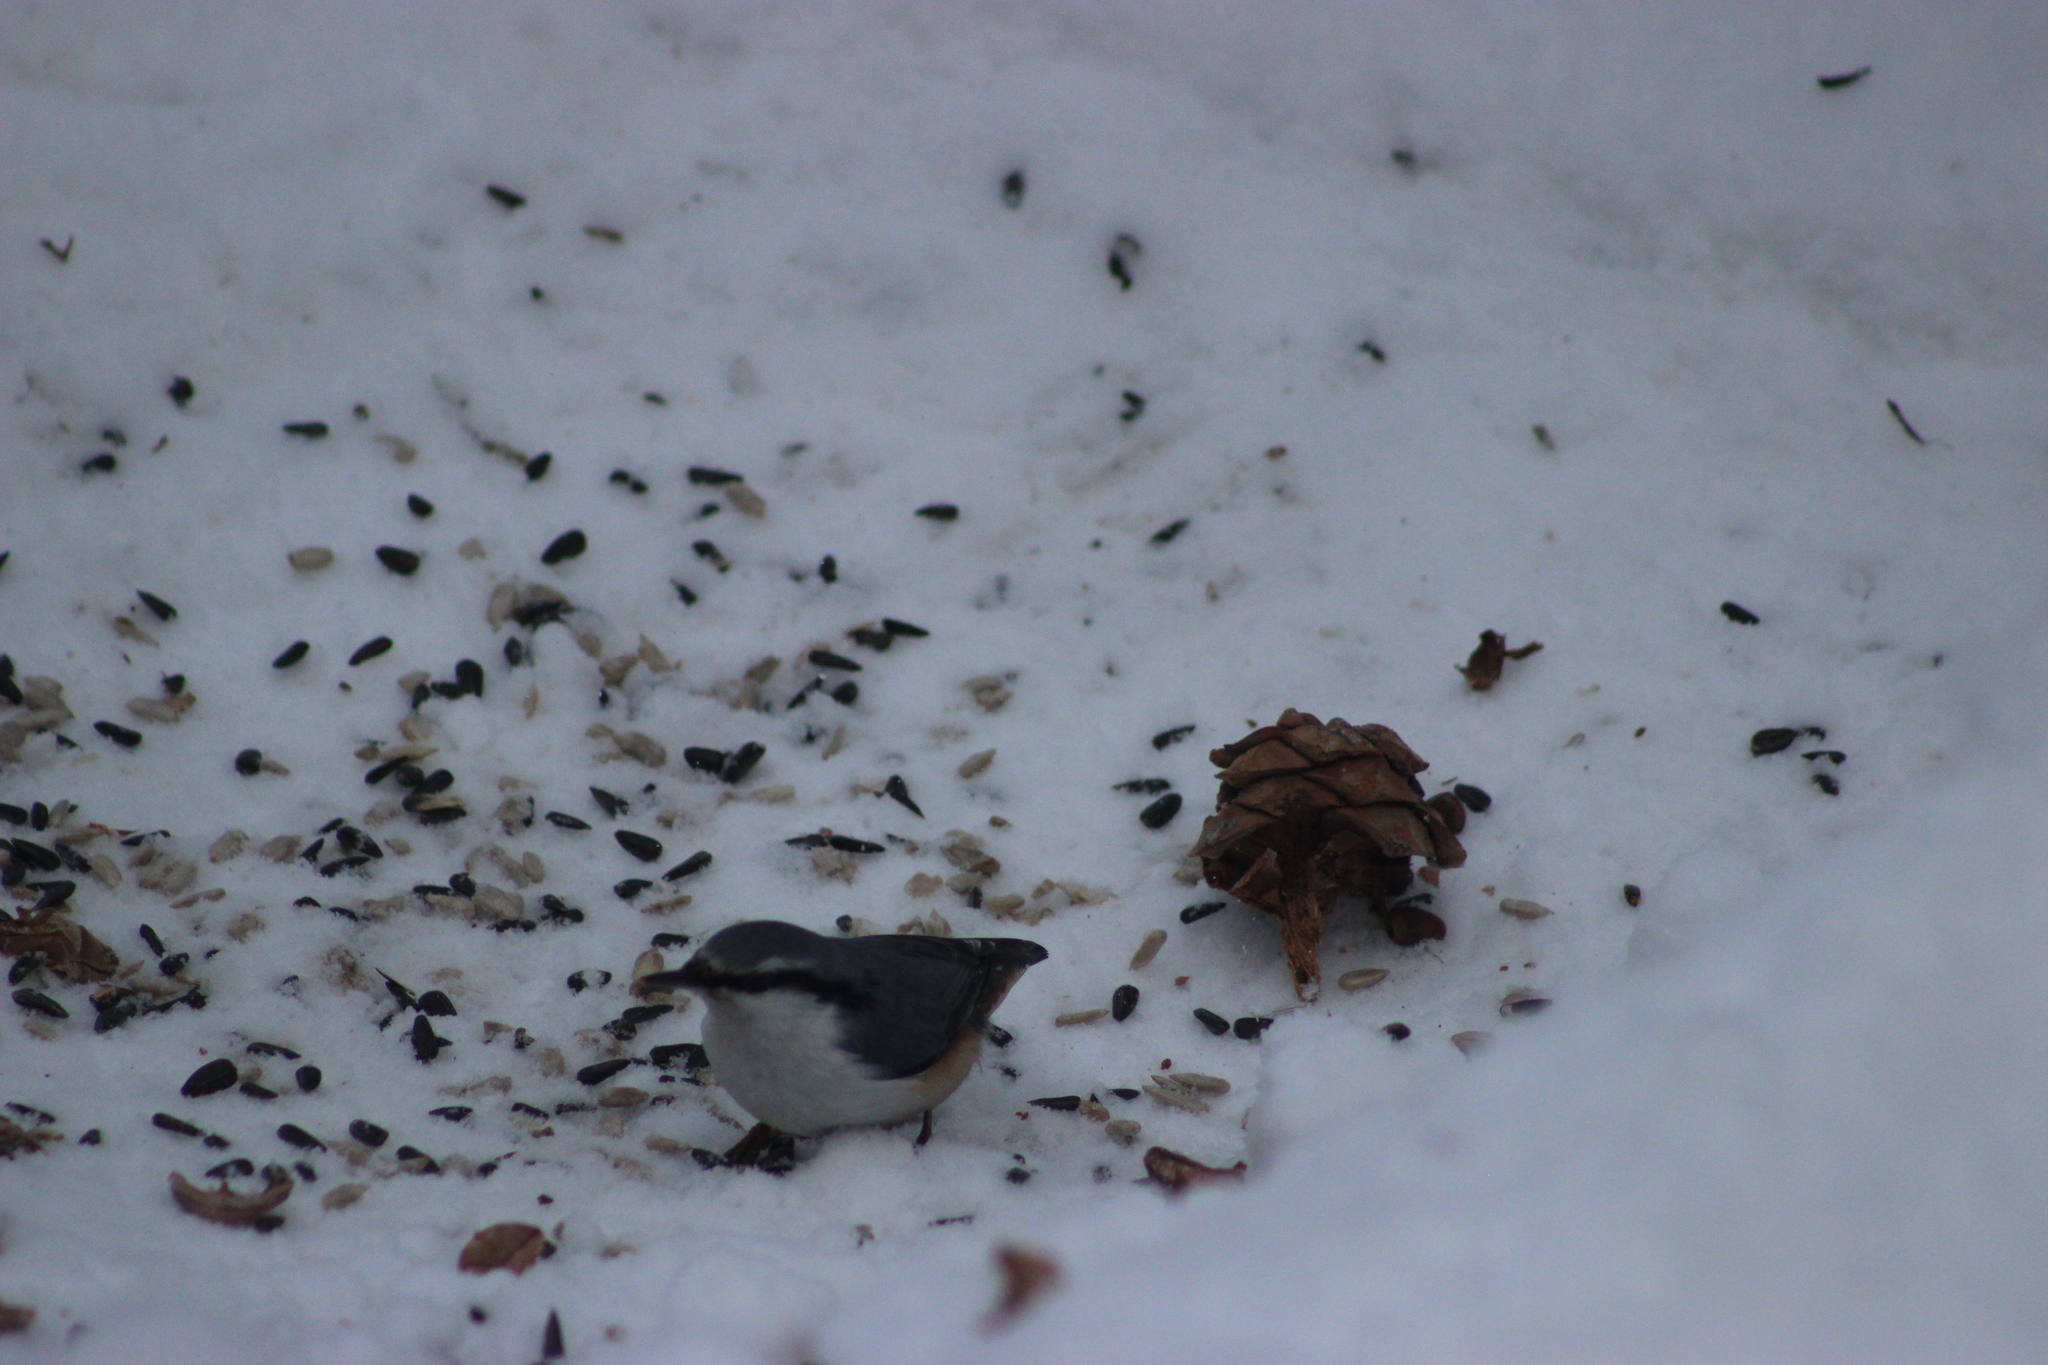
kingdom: Animalia
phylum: Chordata
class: Aves
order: Passeriformes
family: Sittidae
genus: Sitta
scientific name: Sitta europaea
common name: Eurasian nuthatch
